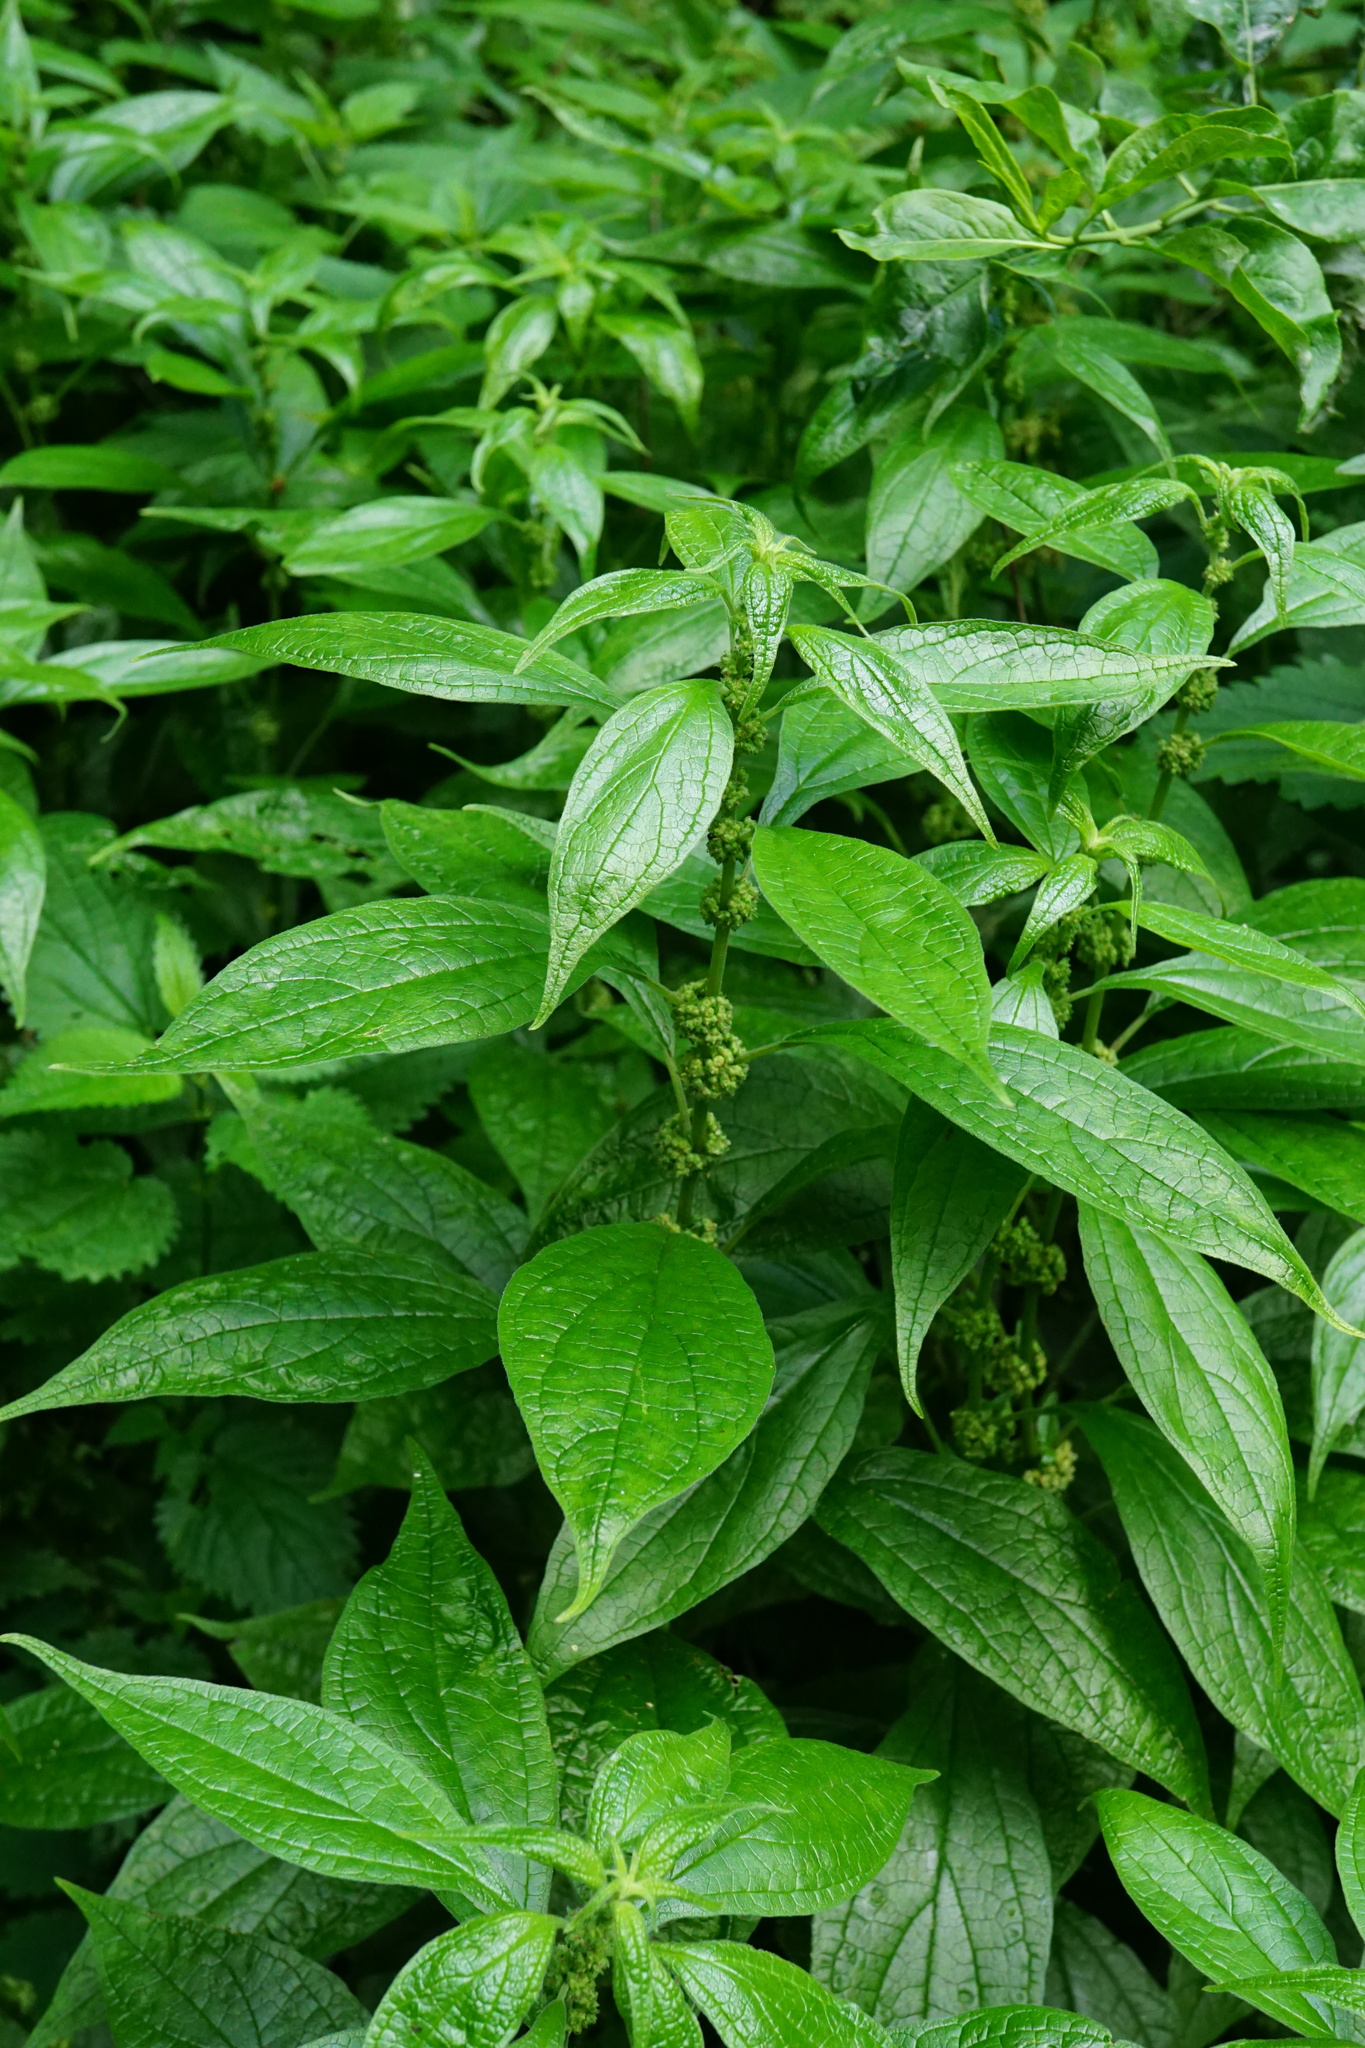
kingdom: Plantae
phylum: Tracheophyta
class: Magnoliopsida
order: Rosales
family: Urticaceae
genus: Parietaria
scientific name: Parietaria officinalis
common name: Eastern pellitory-of-the-wall
